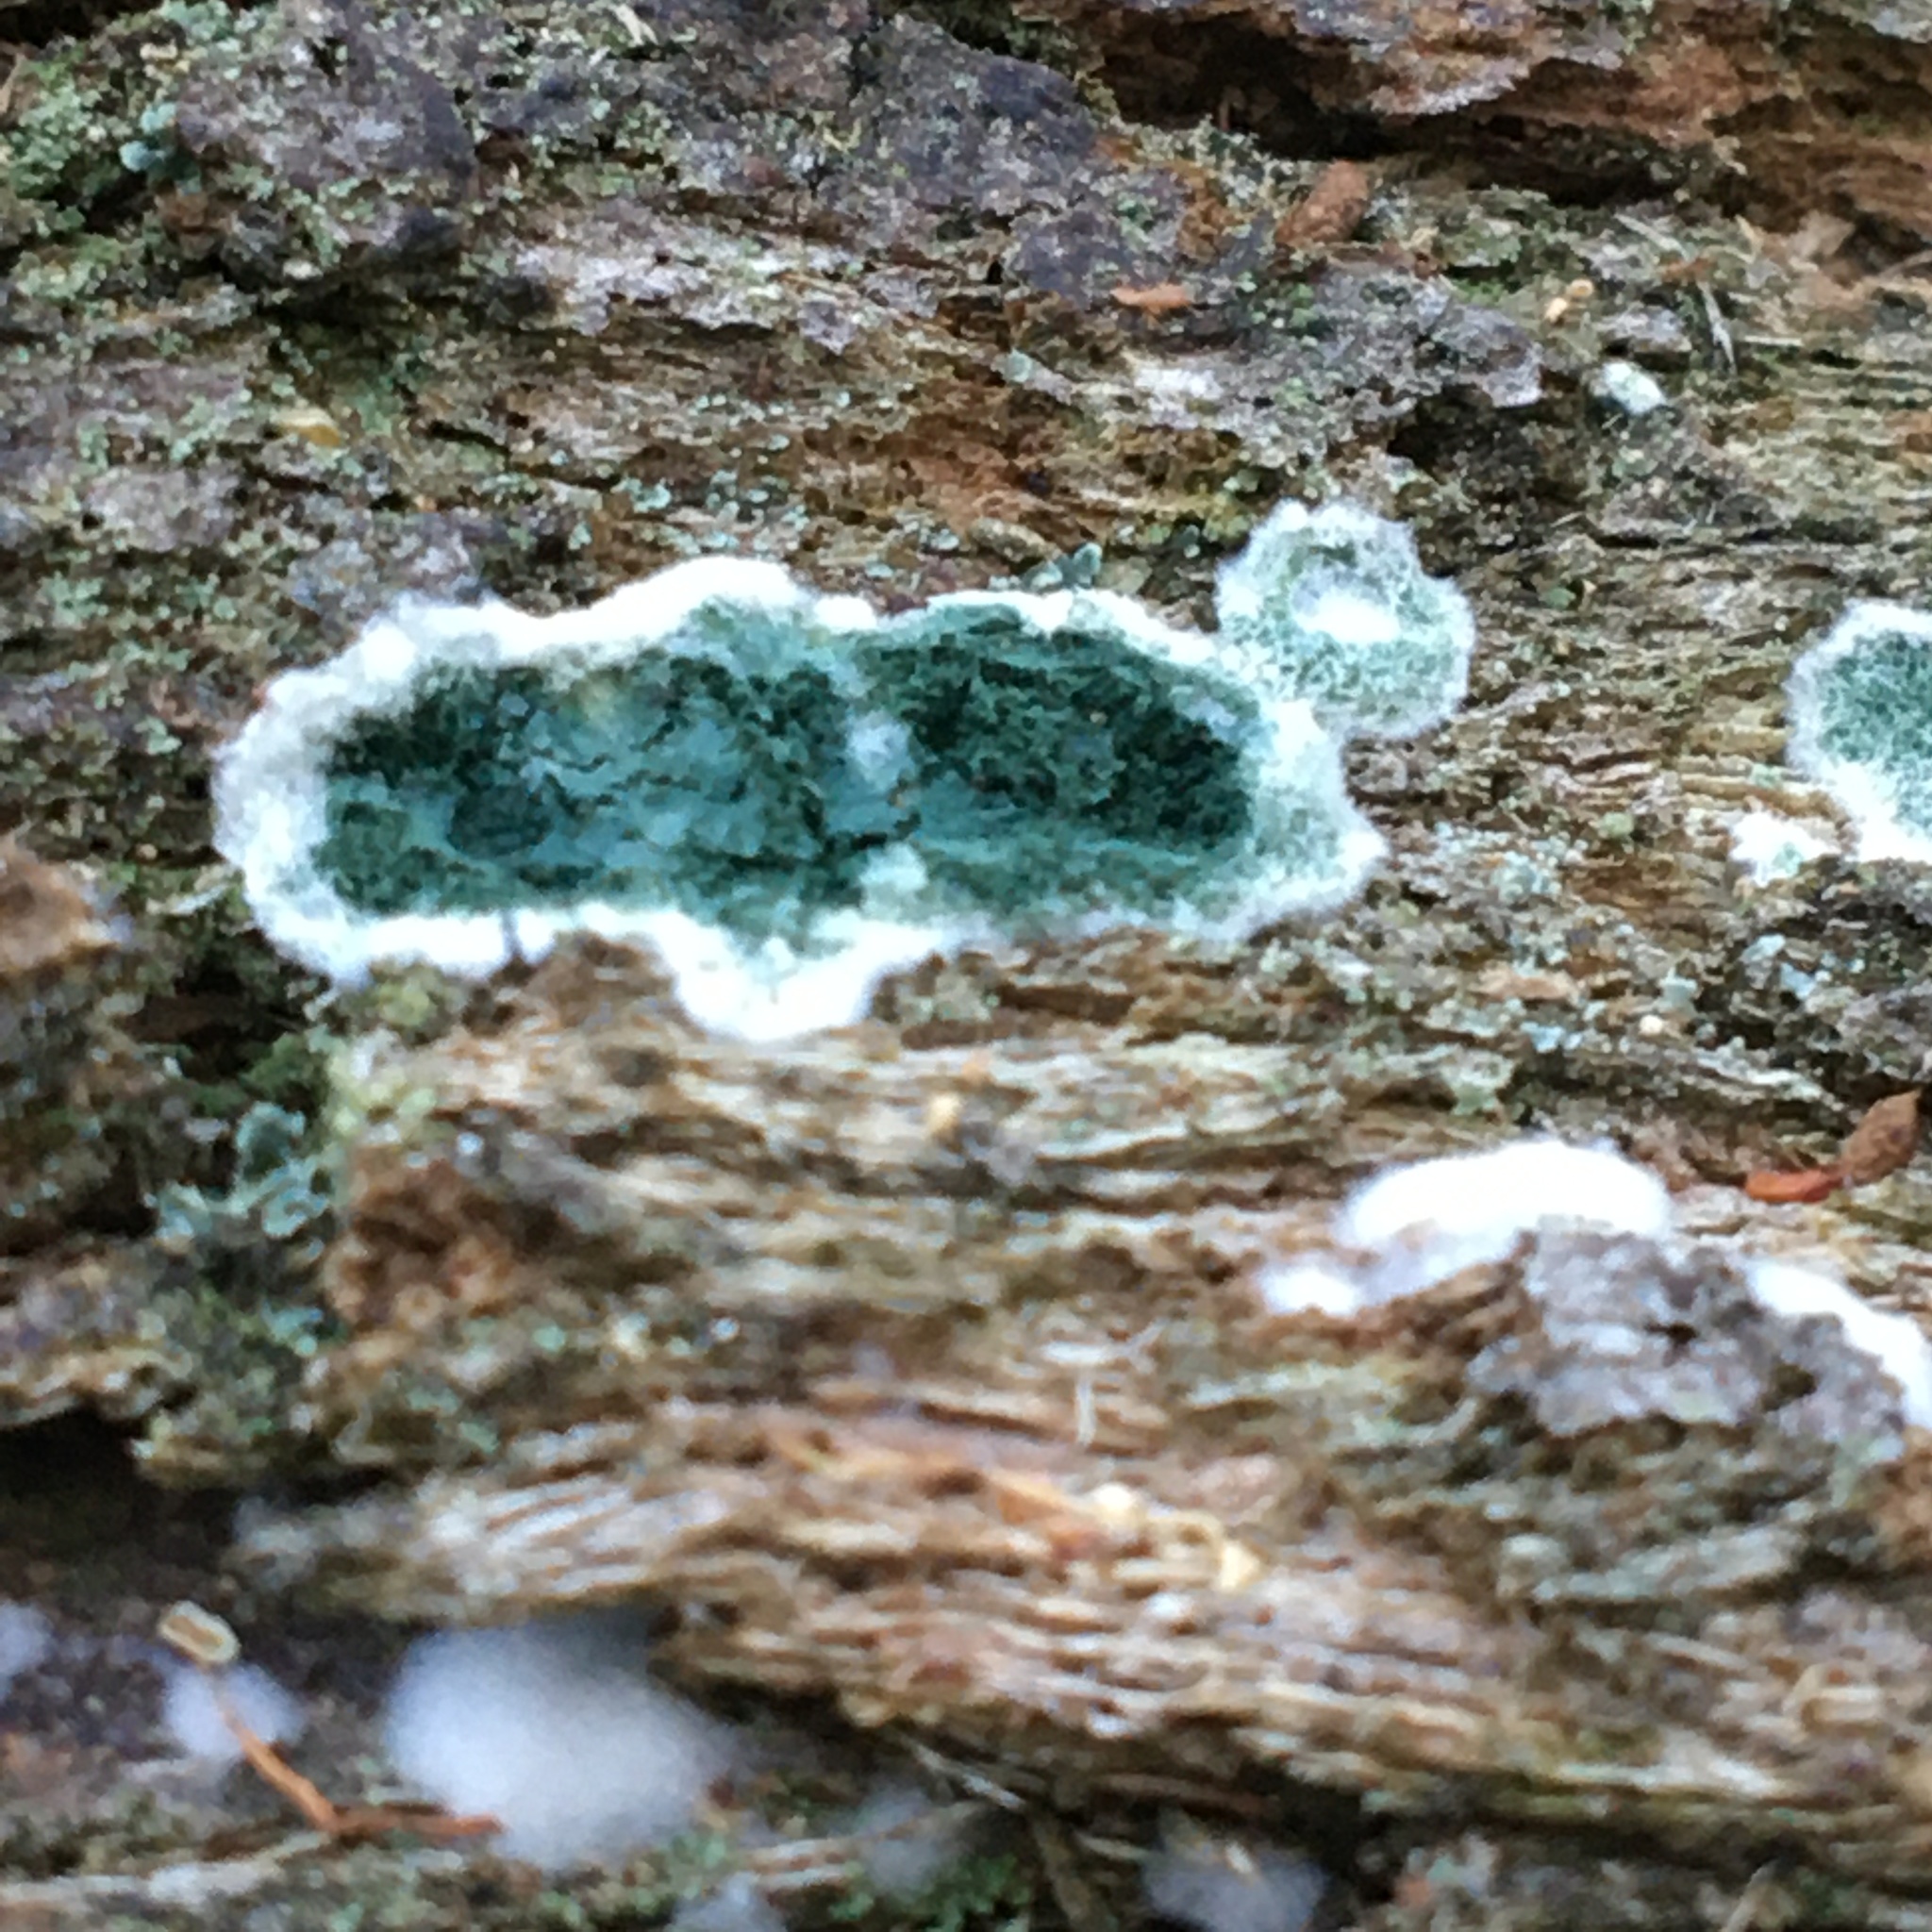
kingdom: Fungi
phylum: Ascomycota
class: Sordariomycetes
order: Hypocreales
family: Hypocreaceae
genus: Trichoderma
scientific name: Trichoderma viride
